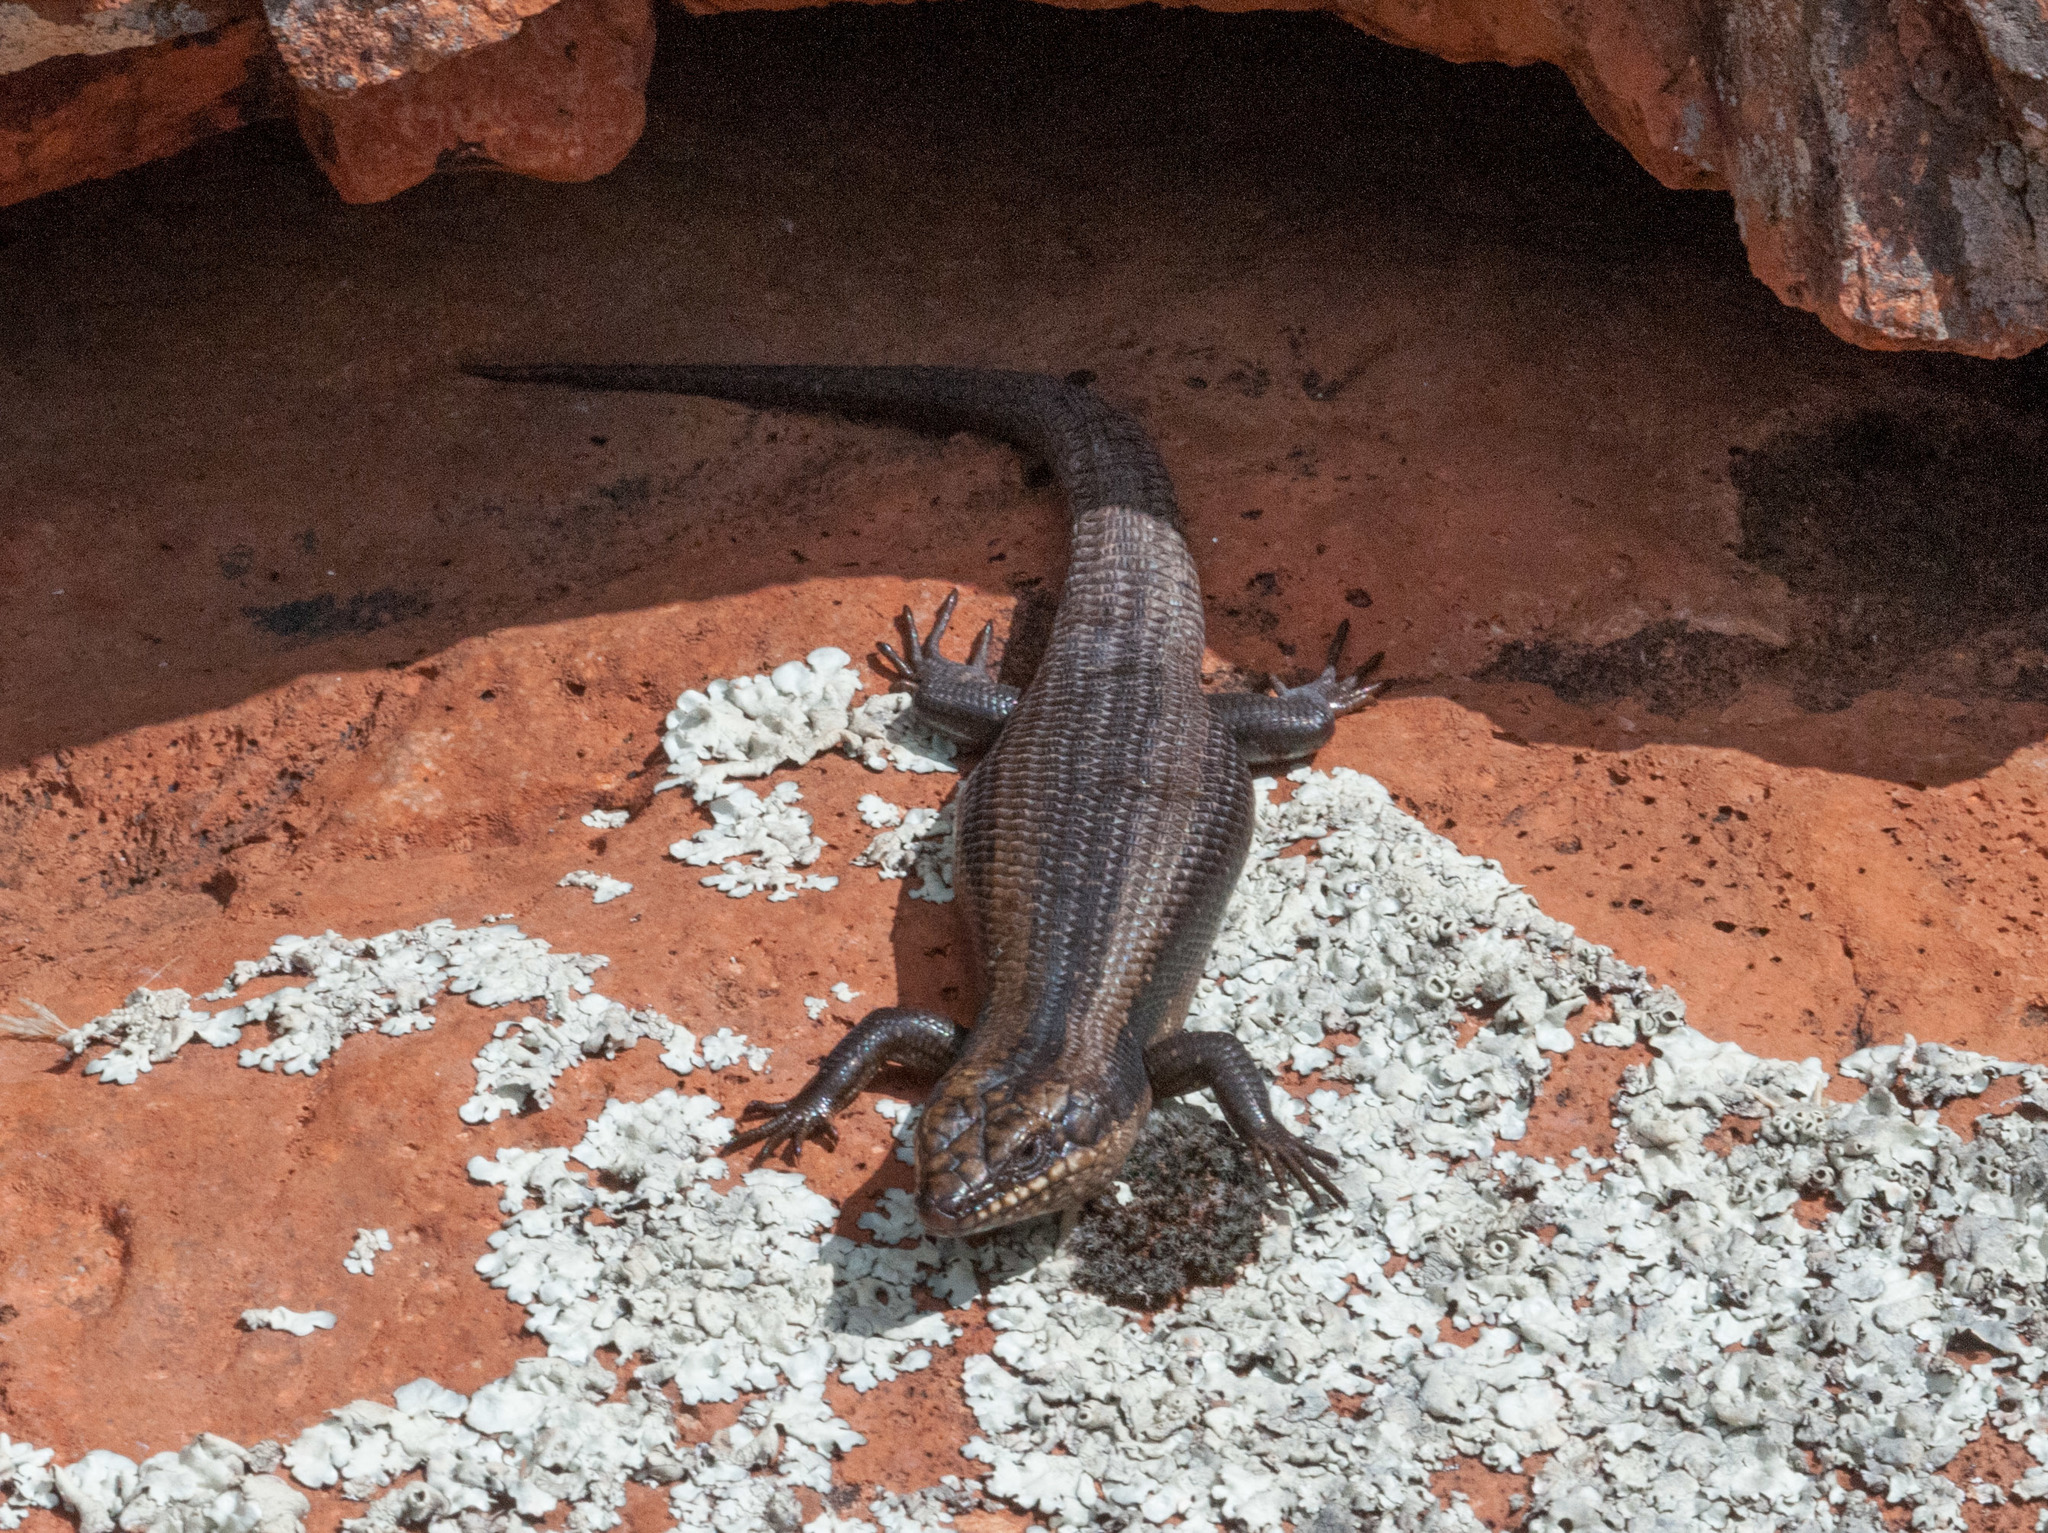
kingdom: Animalia
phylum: Chordata
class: Squamata
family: Scincidae
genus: Egernia
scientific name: Egernia striolata
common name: Tree skink
